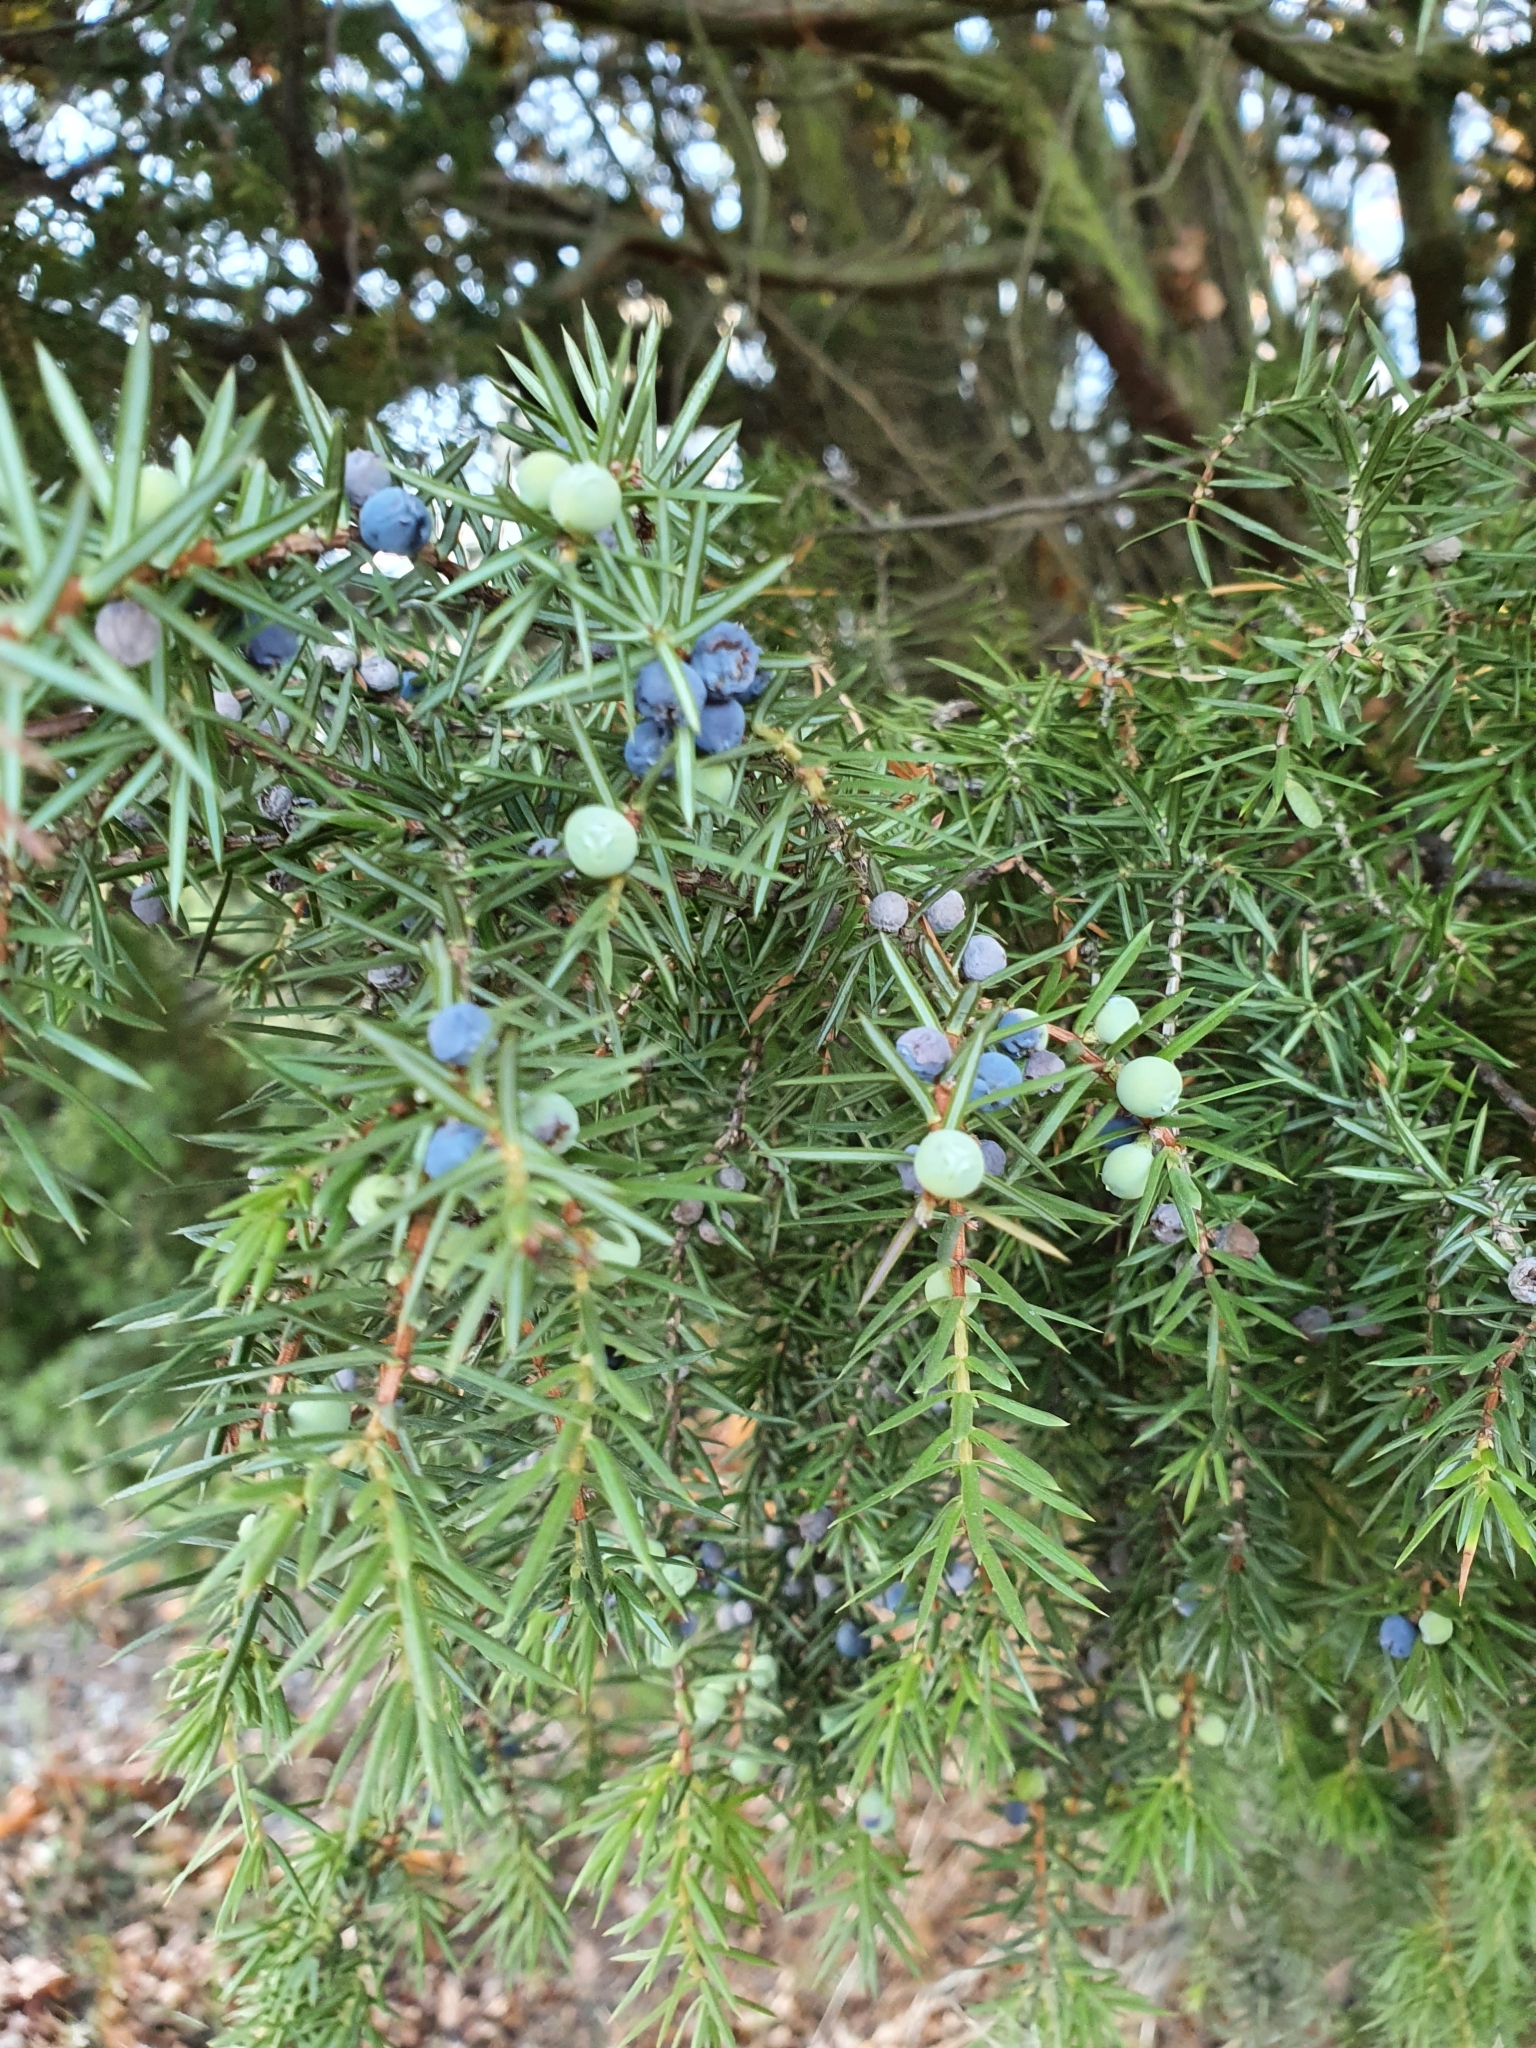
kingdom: Plantae
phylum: Tracheophyta
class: Pinopsida
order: Pinales
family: Cupressaceae
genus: Juniperus
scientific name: Juniperus communis
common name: Common juniper
